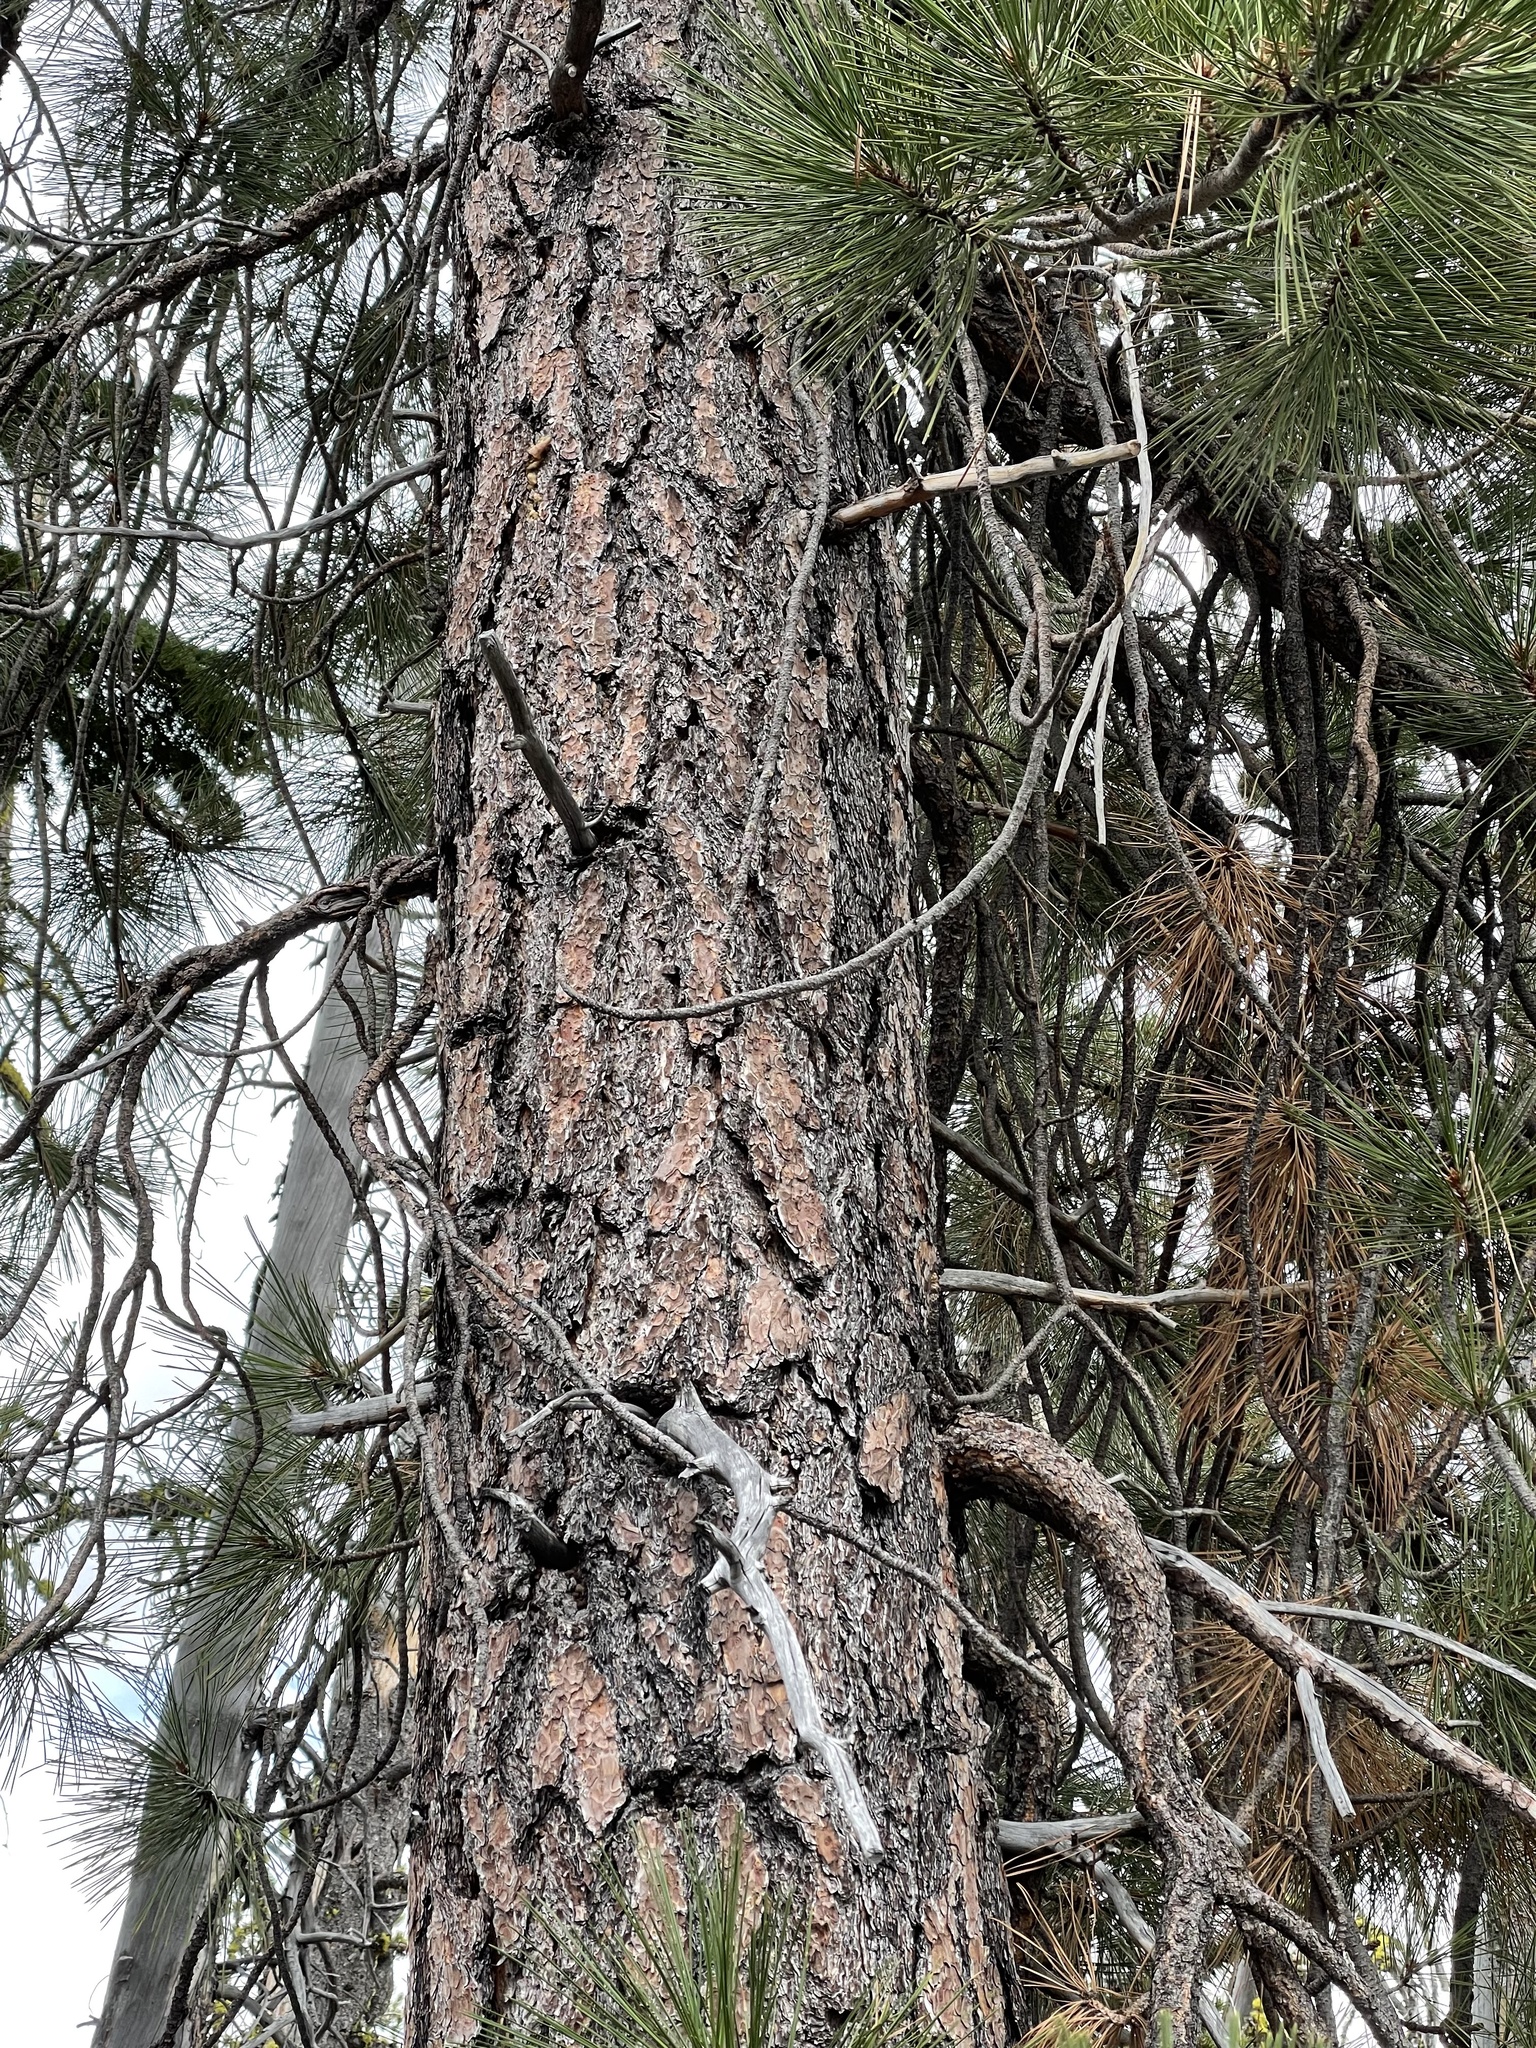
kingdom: Plantae
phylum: Tracheophyta
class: Pinopsida
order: Pinales
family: Pinaceae
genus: Pinus
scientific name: Pinus ponderosa
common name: Western yellow-pine
